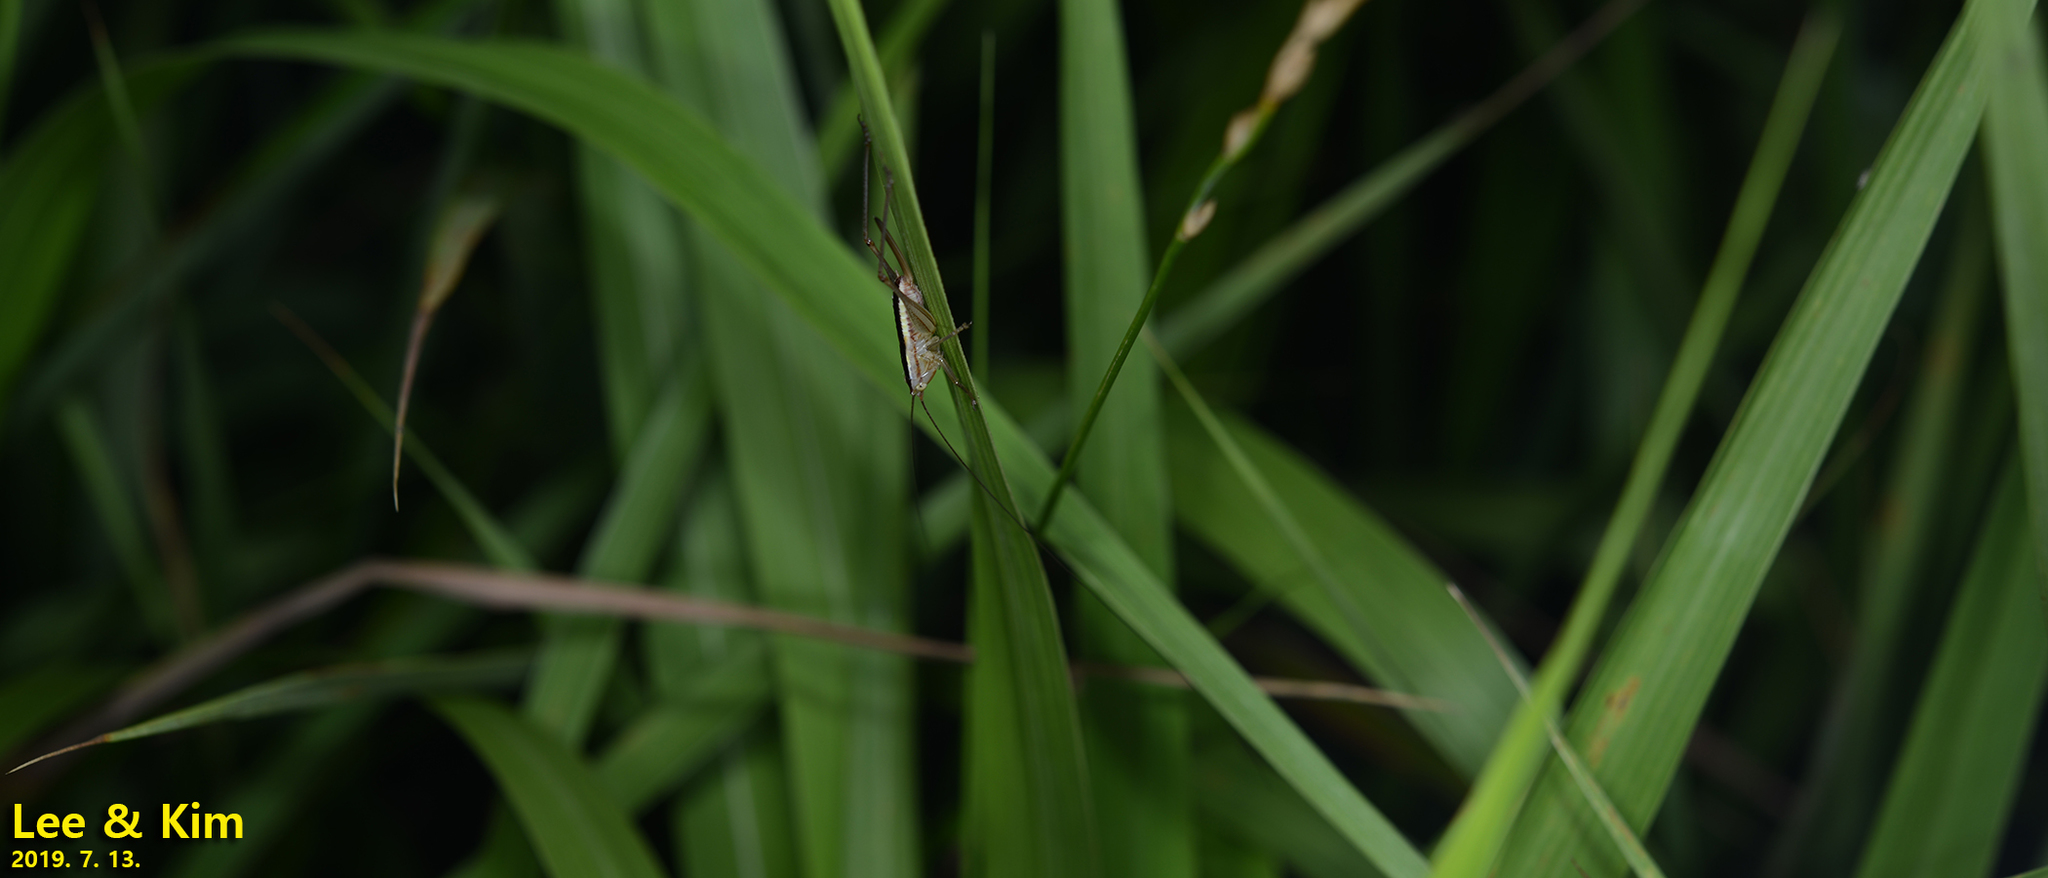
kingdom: Animalia
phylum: Arthropoda
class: Insecta
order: Orthoptera
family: Tettigoniidae
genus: Conocephalus
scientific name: Conocephalus exemptus
